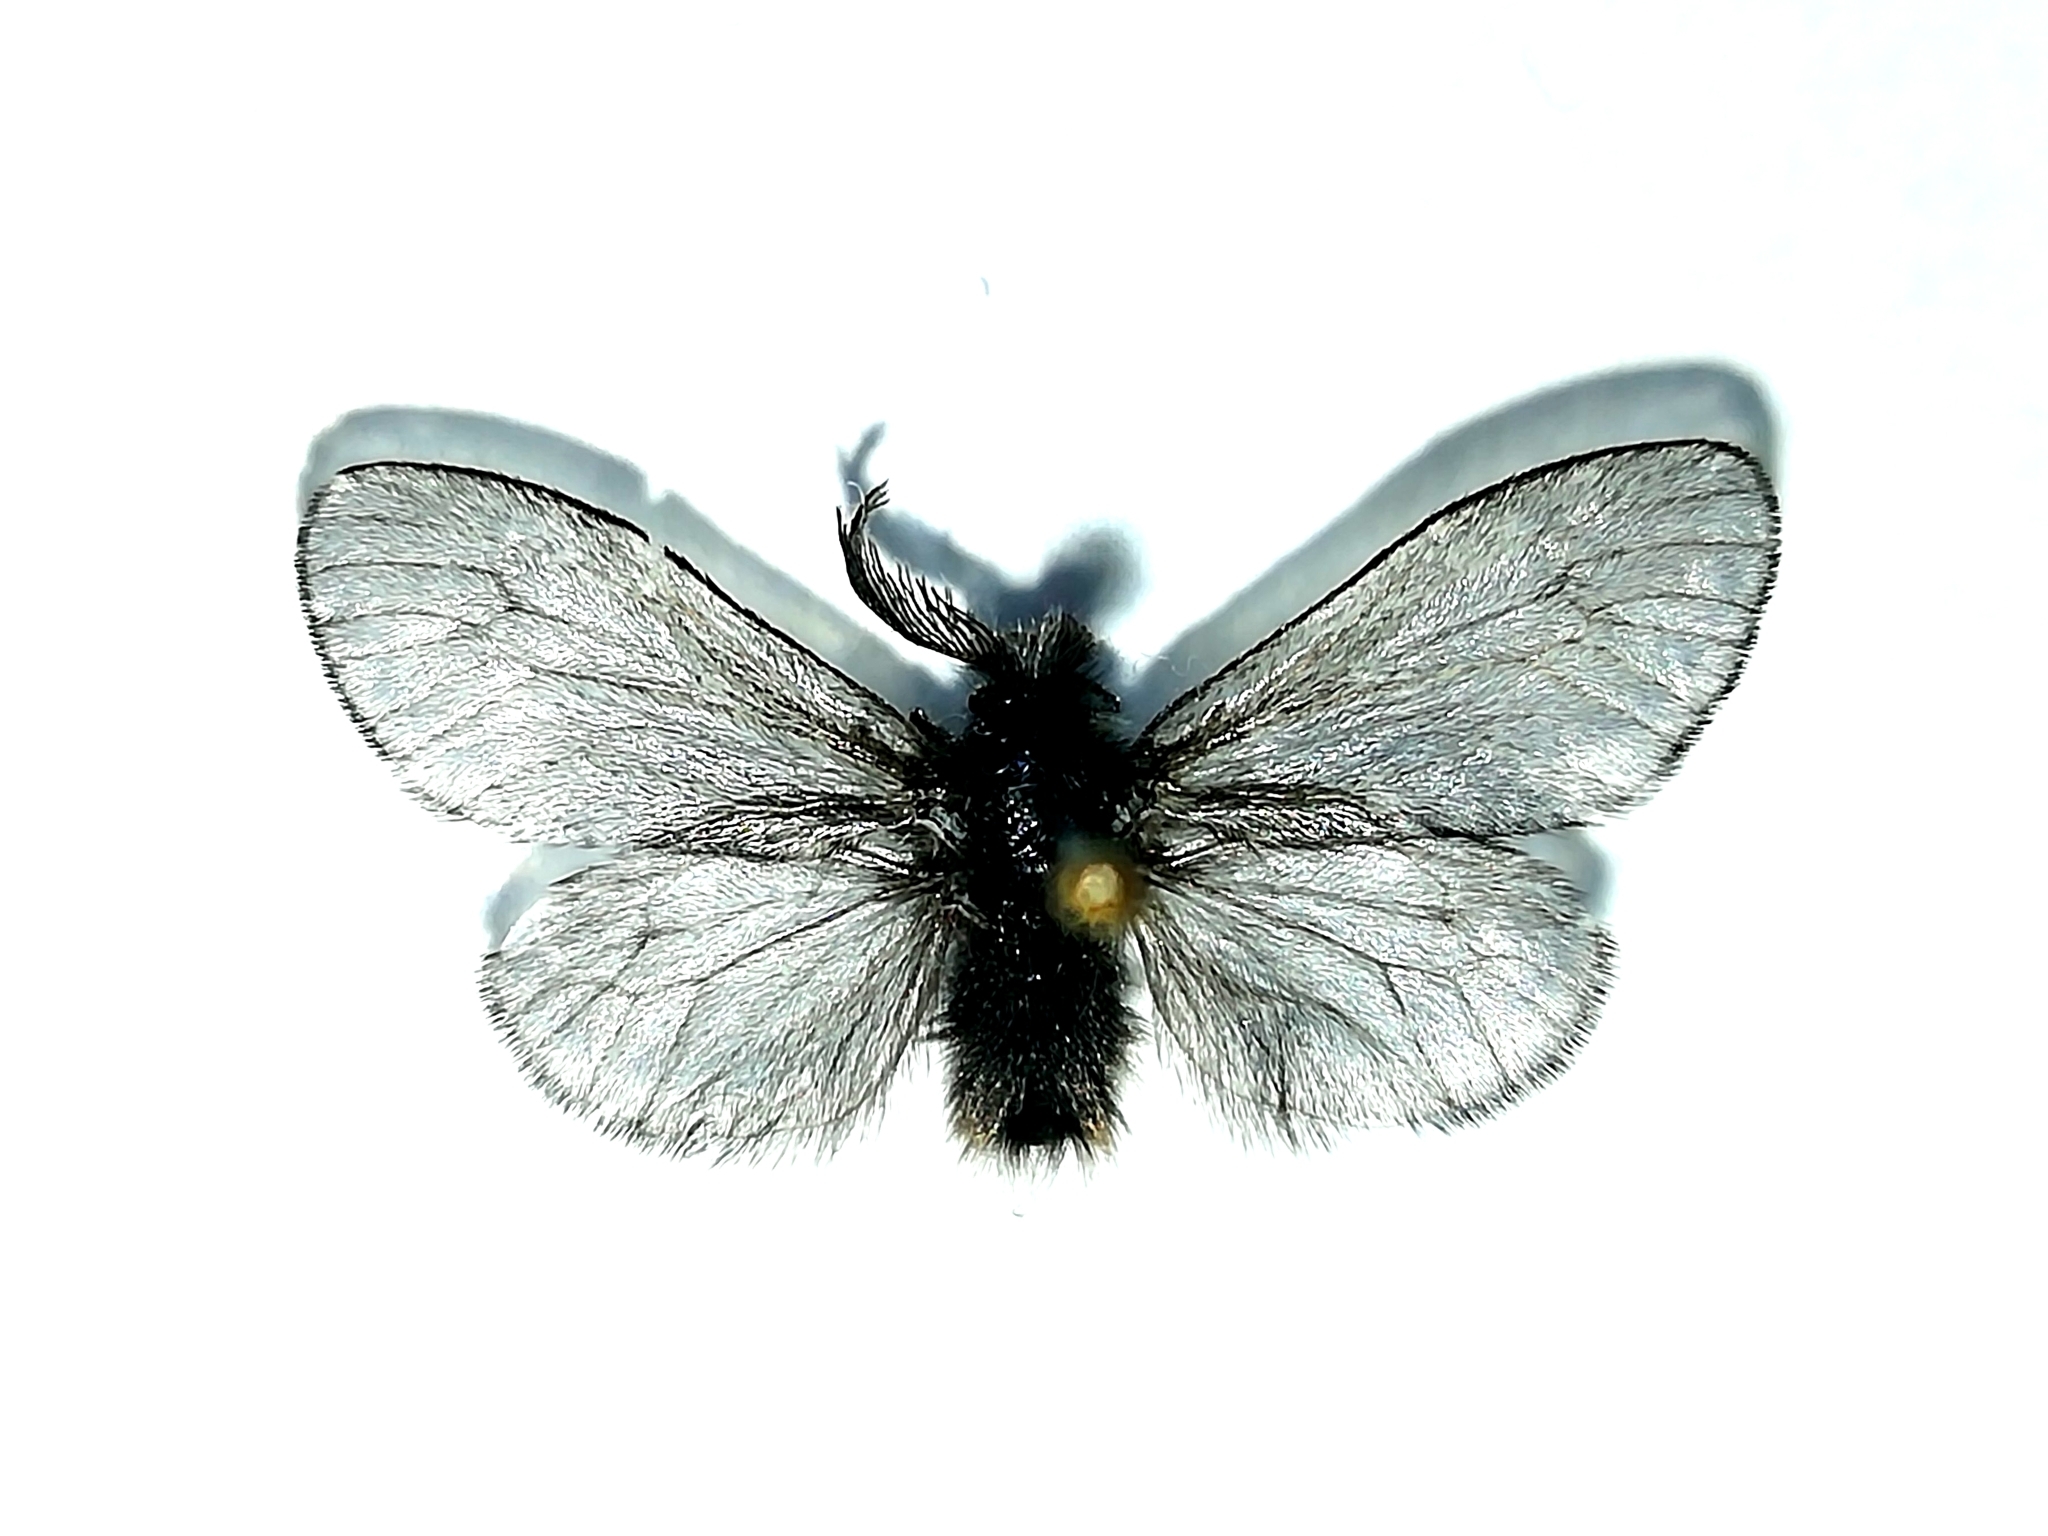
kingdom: Animalia
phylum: Arthropoda
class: Insecta
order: Lepidoptera
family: Psychidae
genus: Canephora
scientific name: Canephora hirsuta
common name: Hairy sweep
